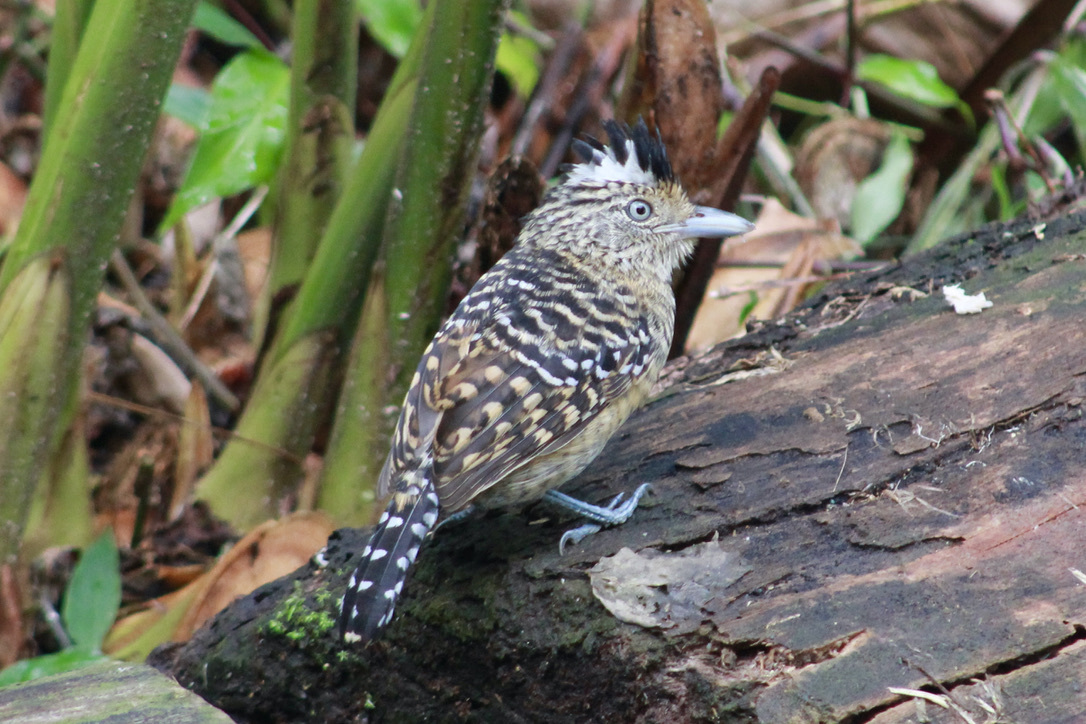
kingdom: Animalia
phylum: Chordata
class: Aves
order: Passeriformes
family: Thamnophilidae
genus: Thamnophilus
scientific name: Thamnophilus doliatus
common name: Barred antshrike
